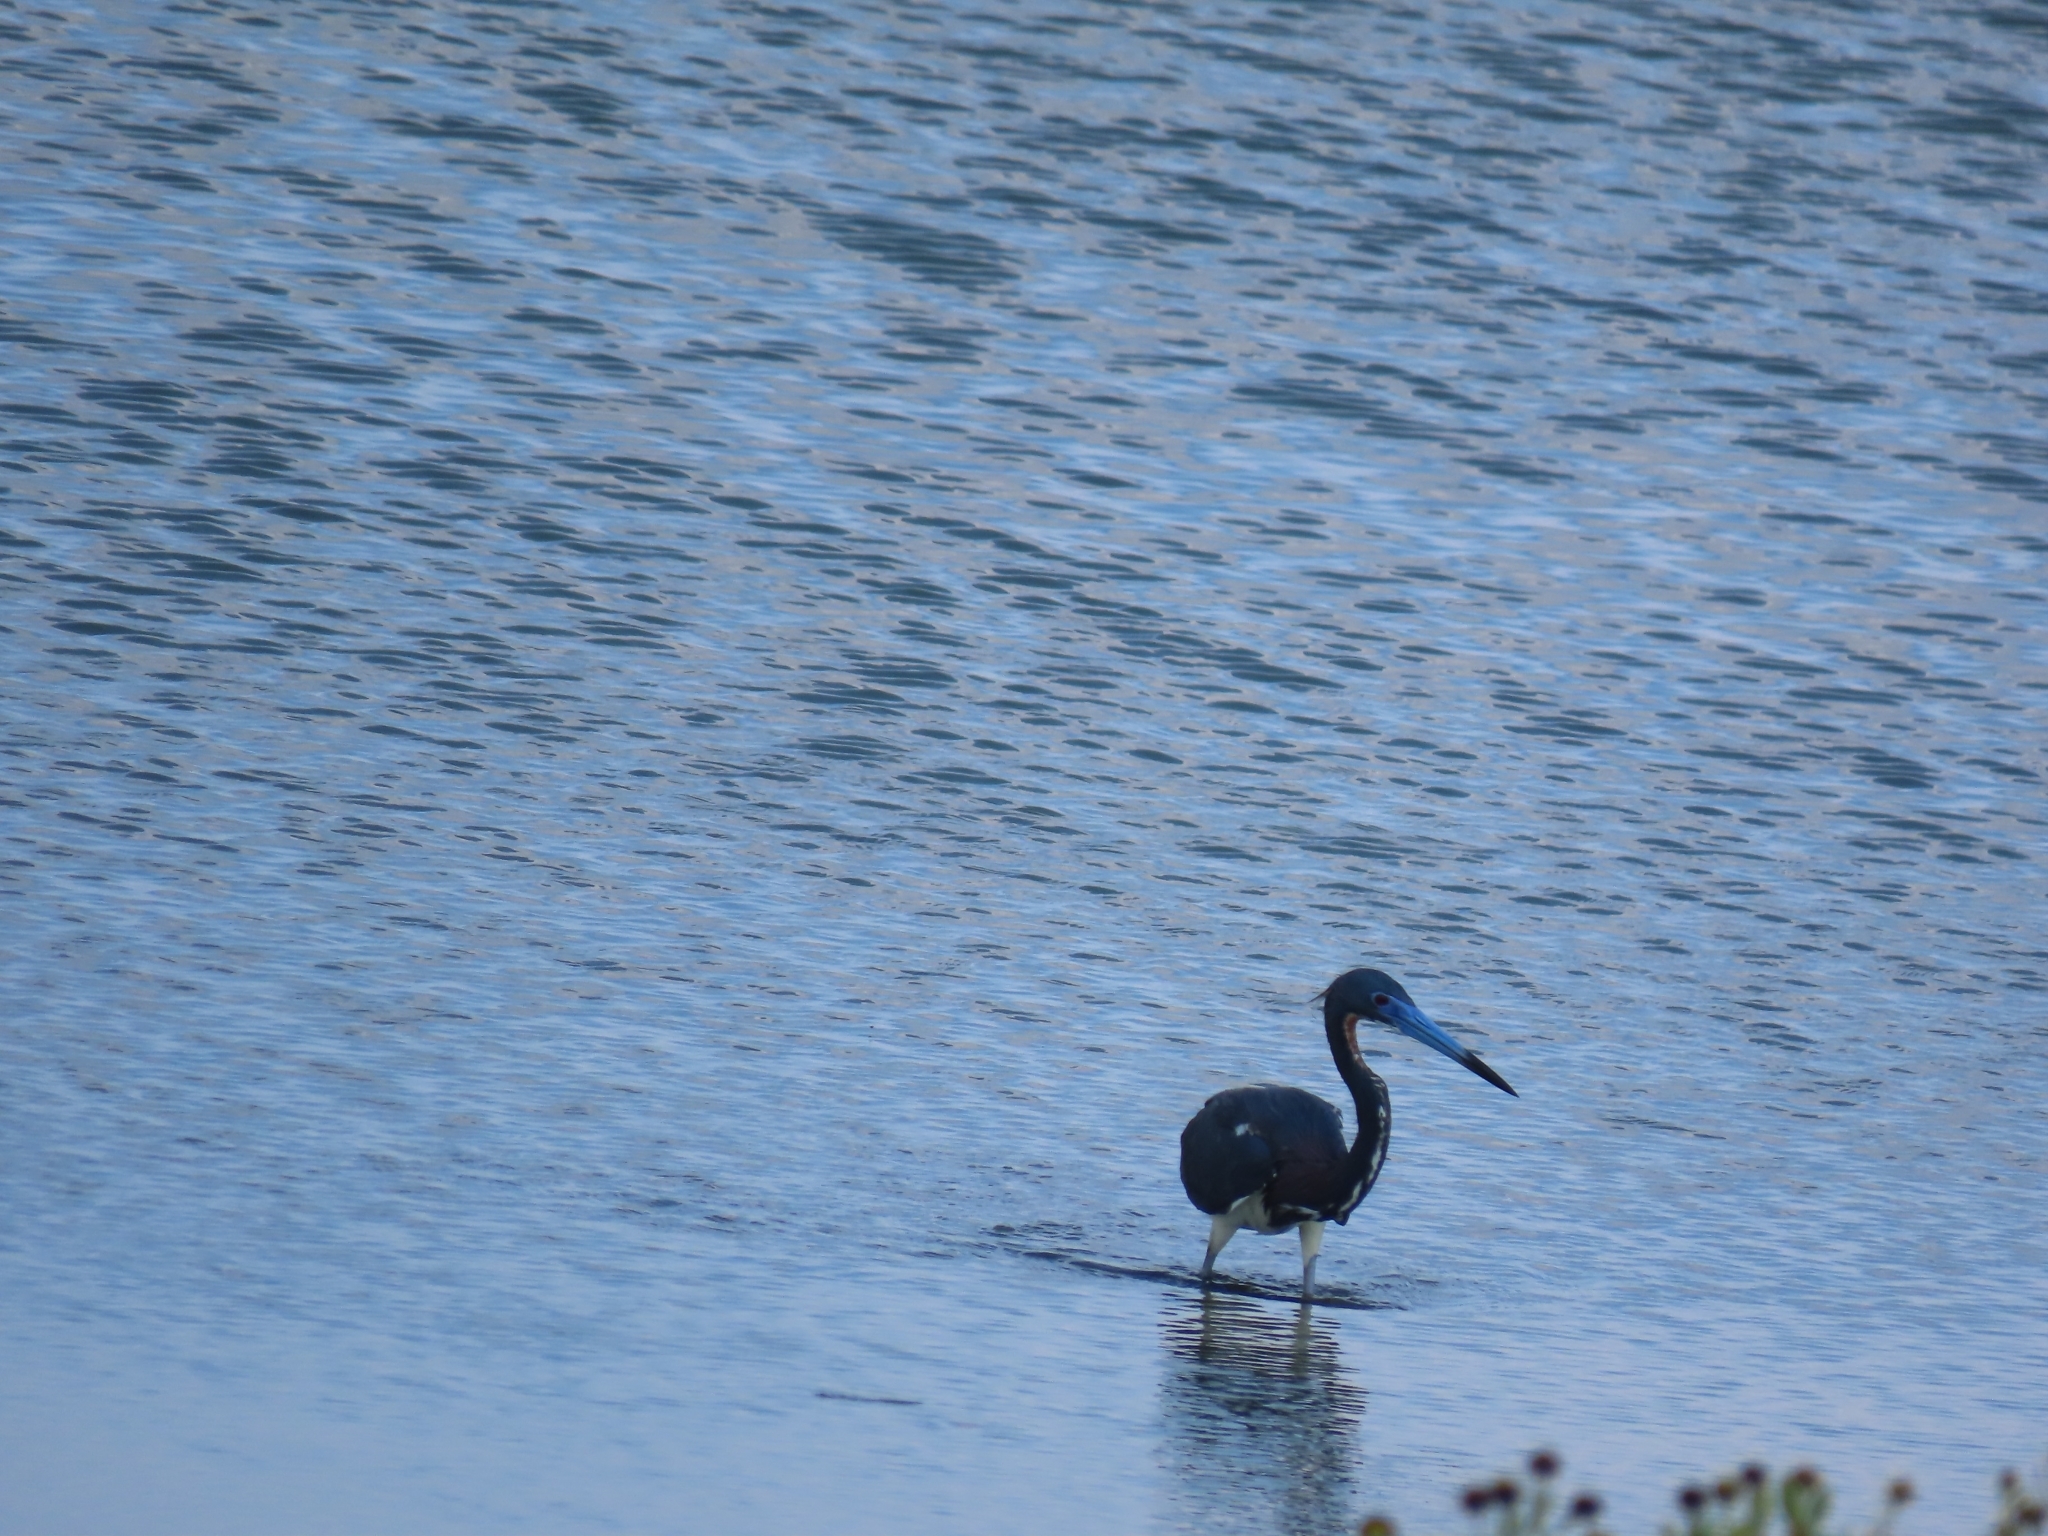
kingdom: Animalia
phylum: Chordata
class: Aves
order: Pelecaniformes
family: Ardeidae
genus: Egretta
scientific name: Egretta tricolor
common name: Tricolored heron
